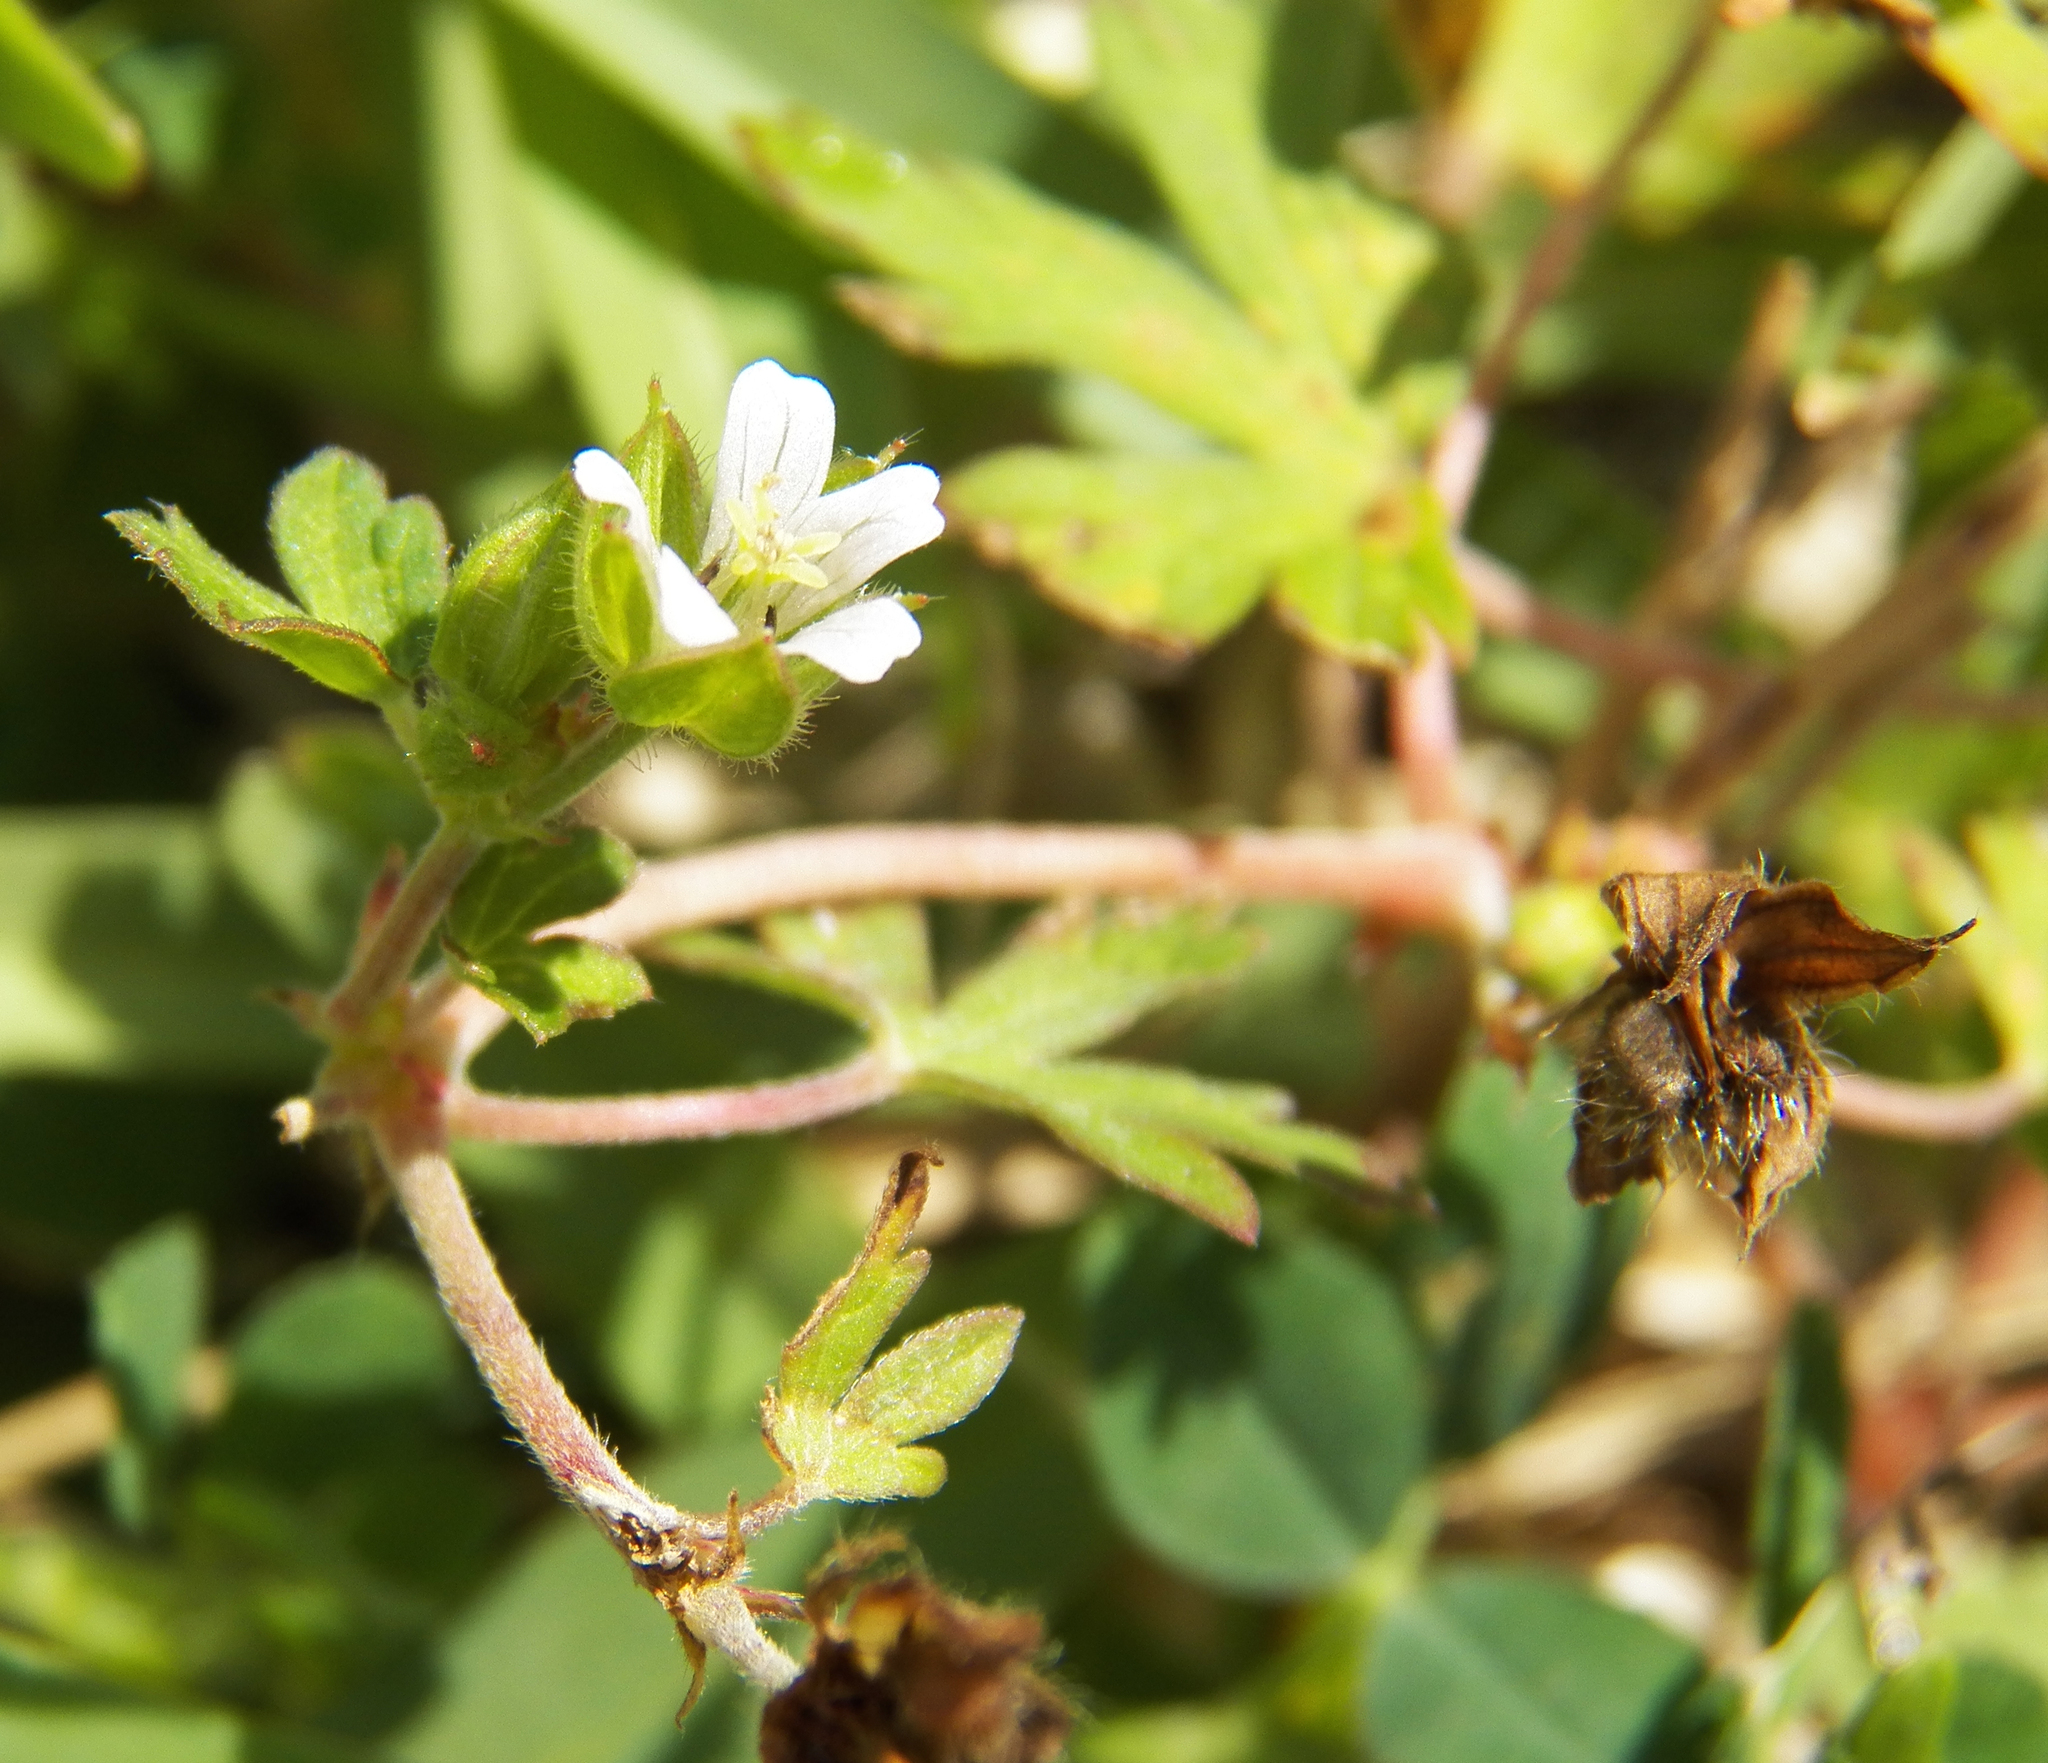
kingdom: Plantae
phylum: Tracheophyta
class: Magnoliopsida
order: Geraniales
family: Geraniaceae
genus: Geranium
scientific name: Geranium carolinianum
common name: Carolina crane's-bill
